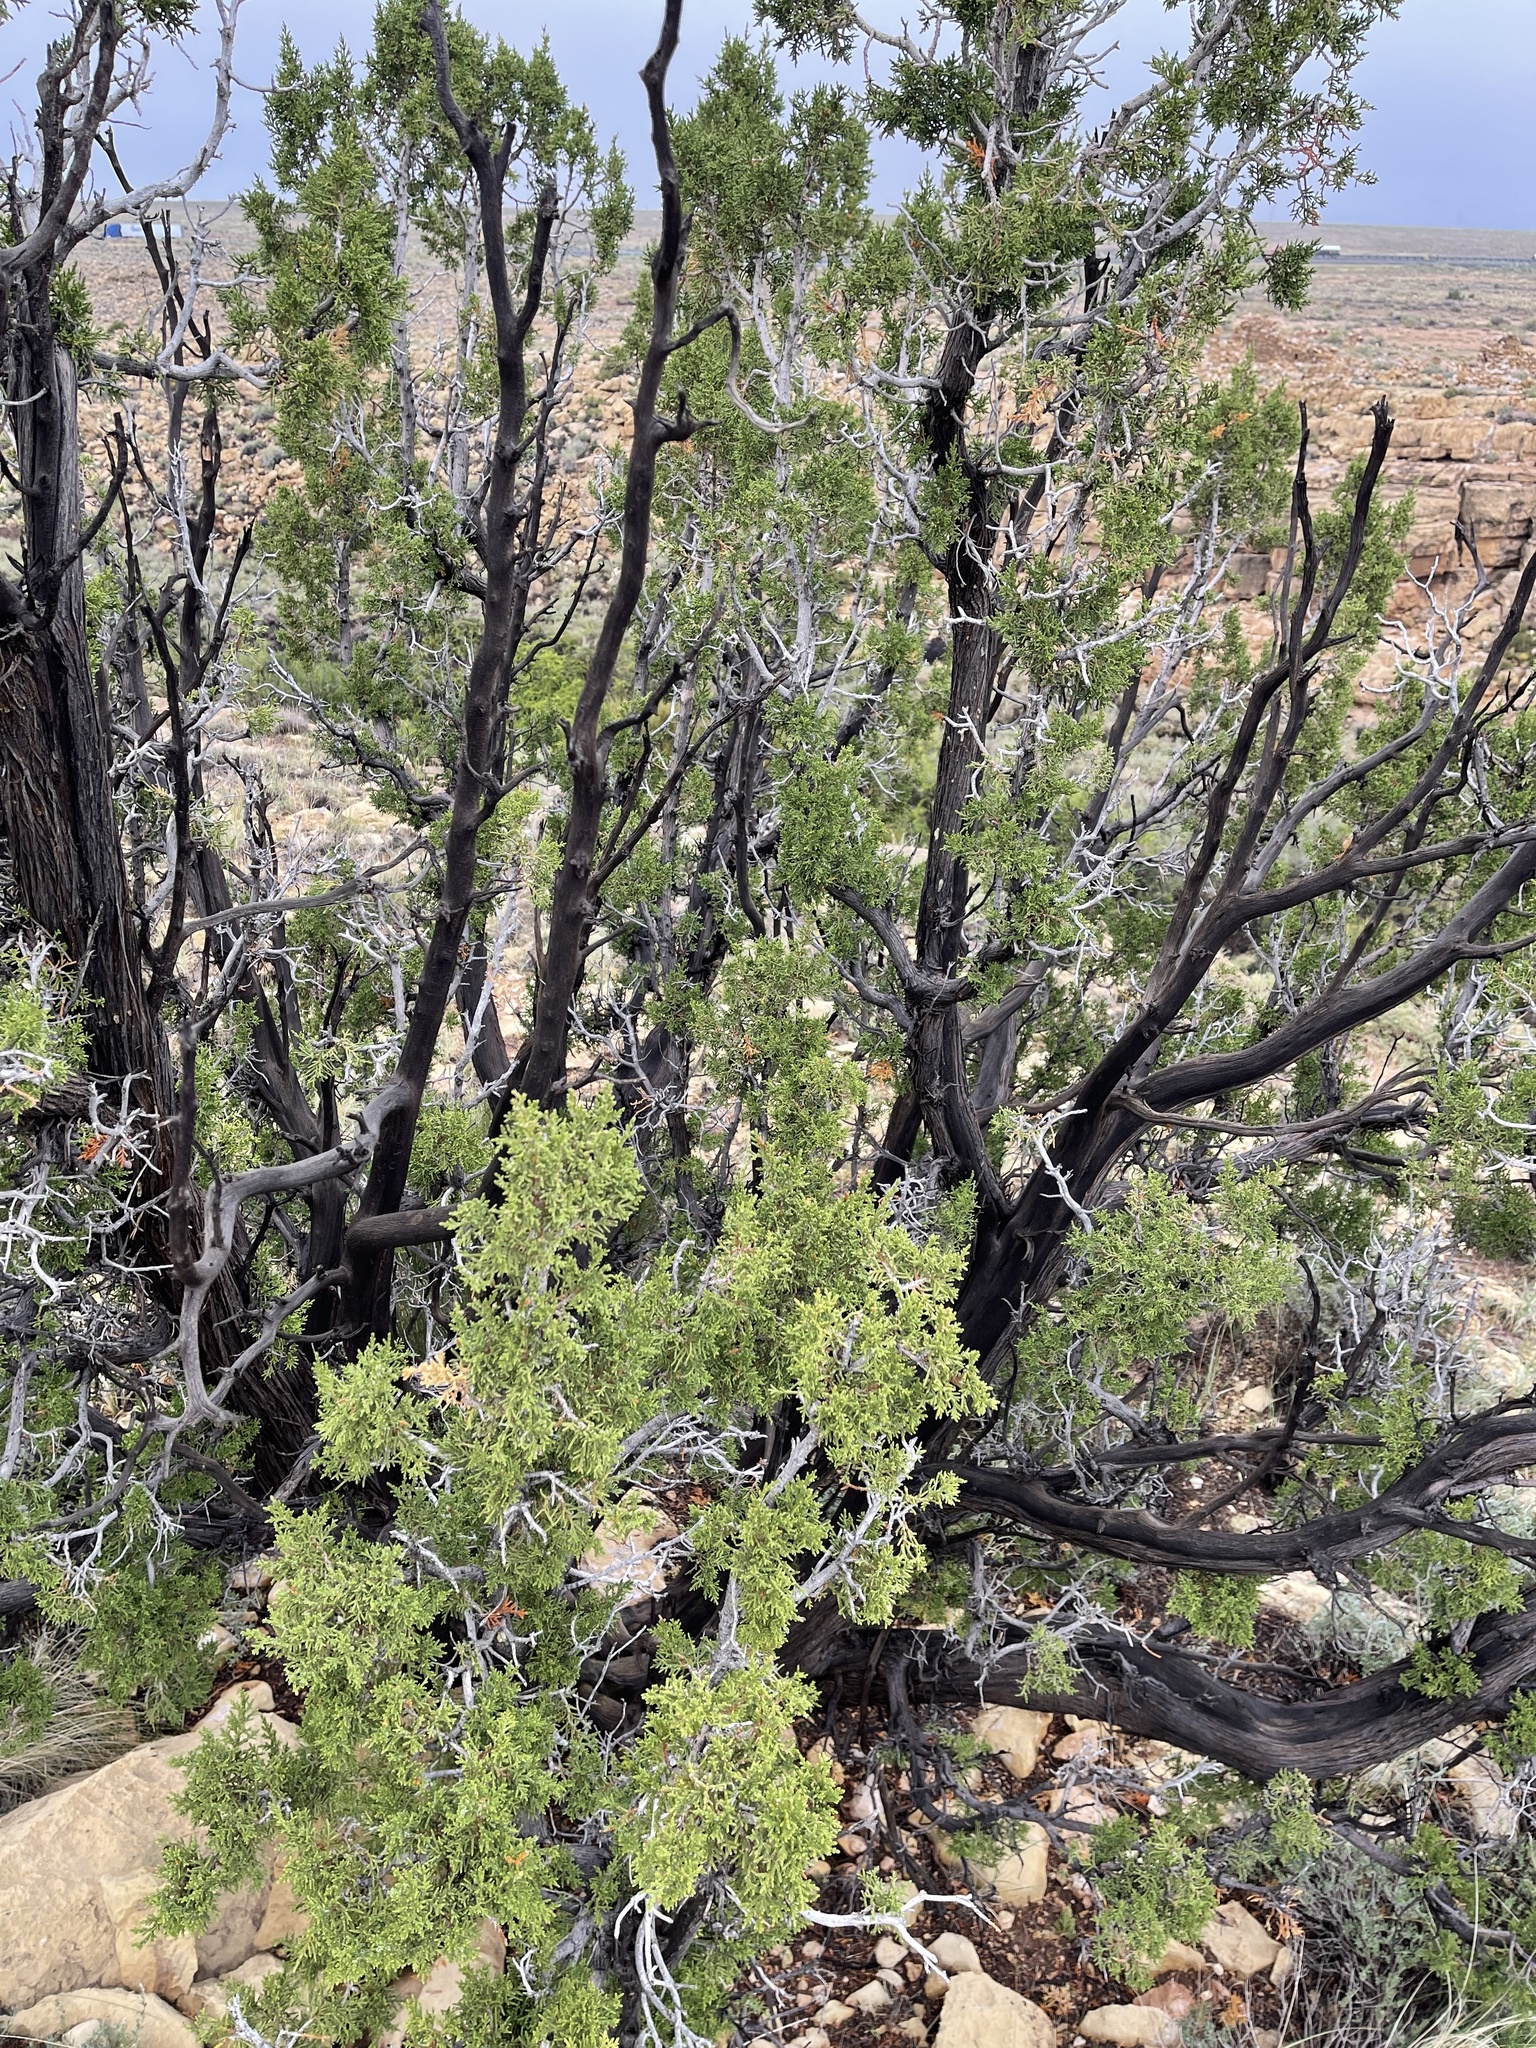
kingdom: Plantae
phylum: Tracheophyta
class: Pinopsida
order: Pinales
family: Cupressaceae
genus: Juniperus
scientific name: Juniperus monosperma
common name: One-seed juniper
